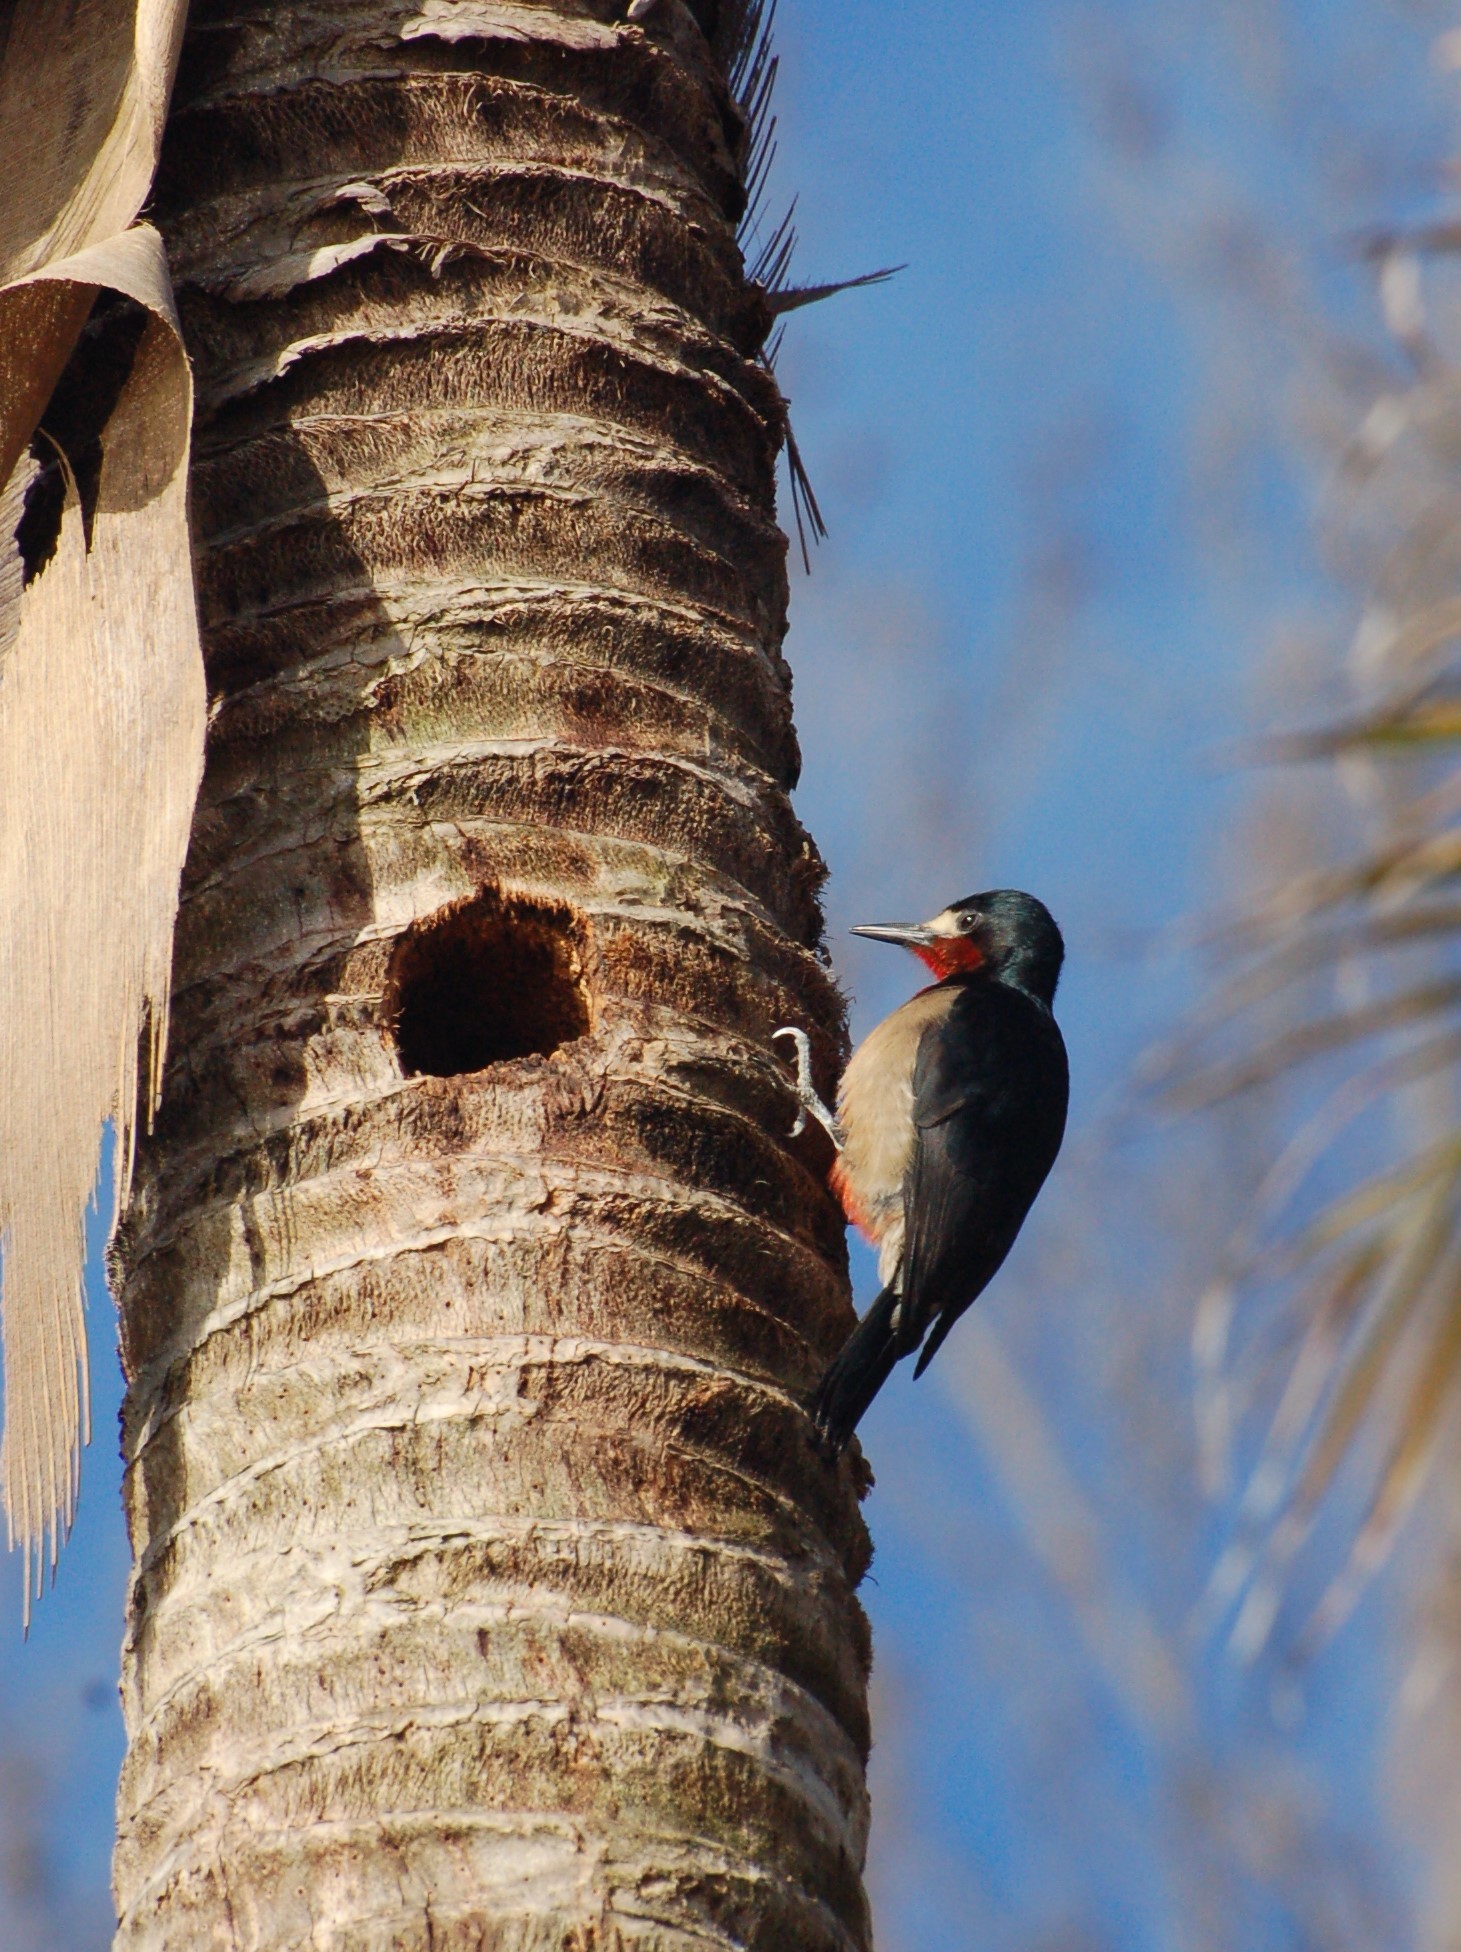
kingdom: Animalia
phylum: Chordata
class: Aves
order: Piciformes
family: Picidae
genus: Melanerpes
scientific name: Melanerpes portoricensis
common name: Puerto rican woodpecker
